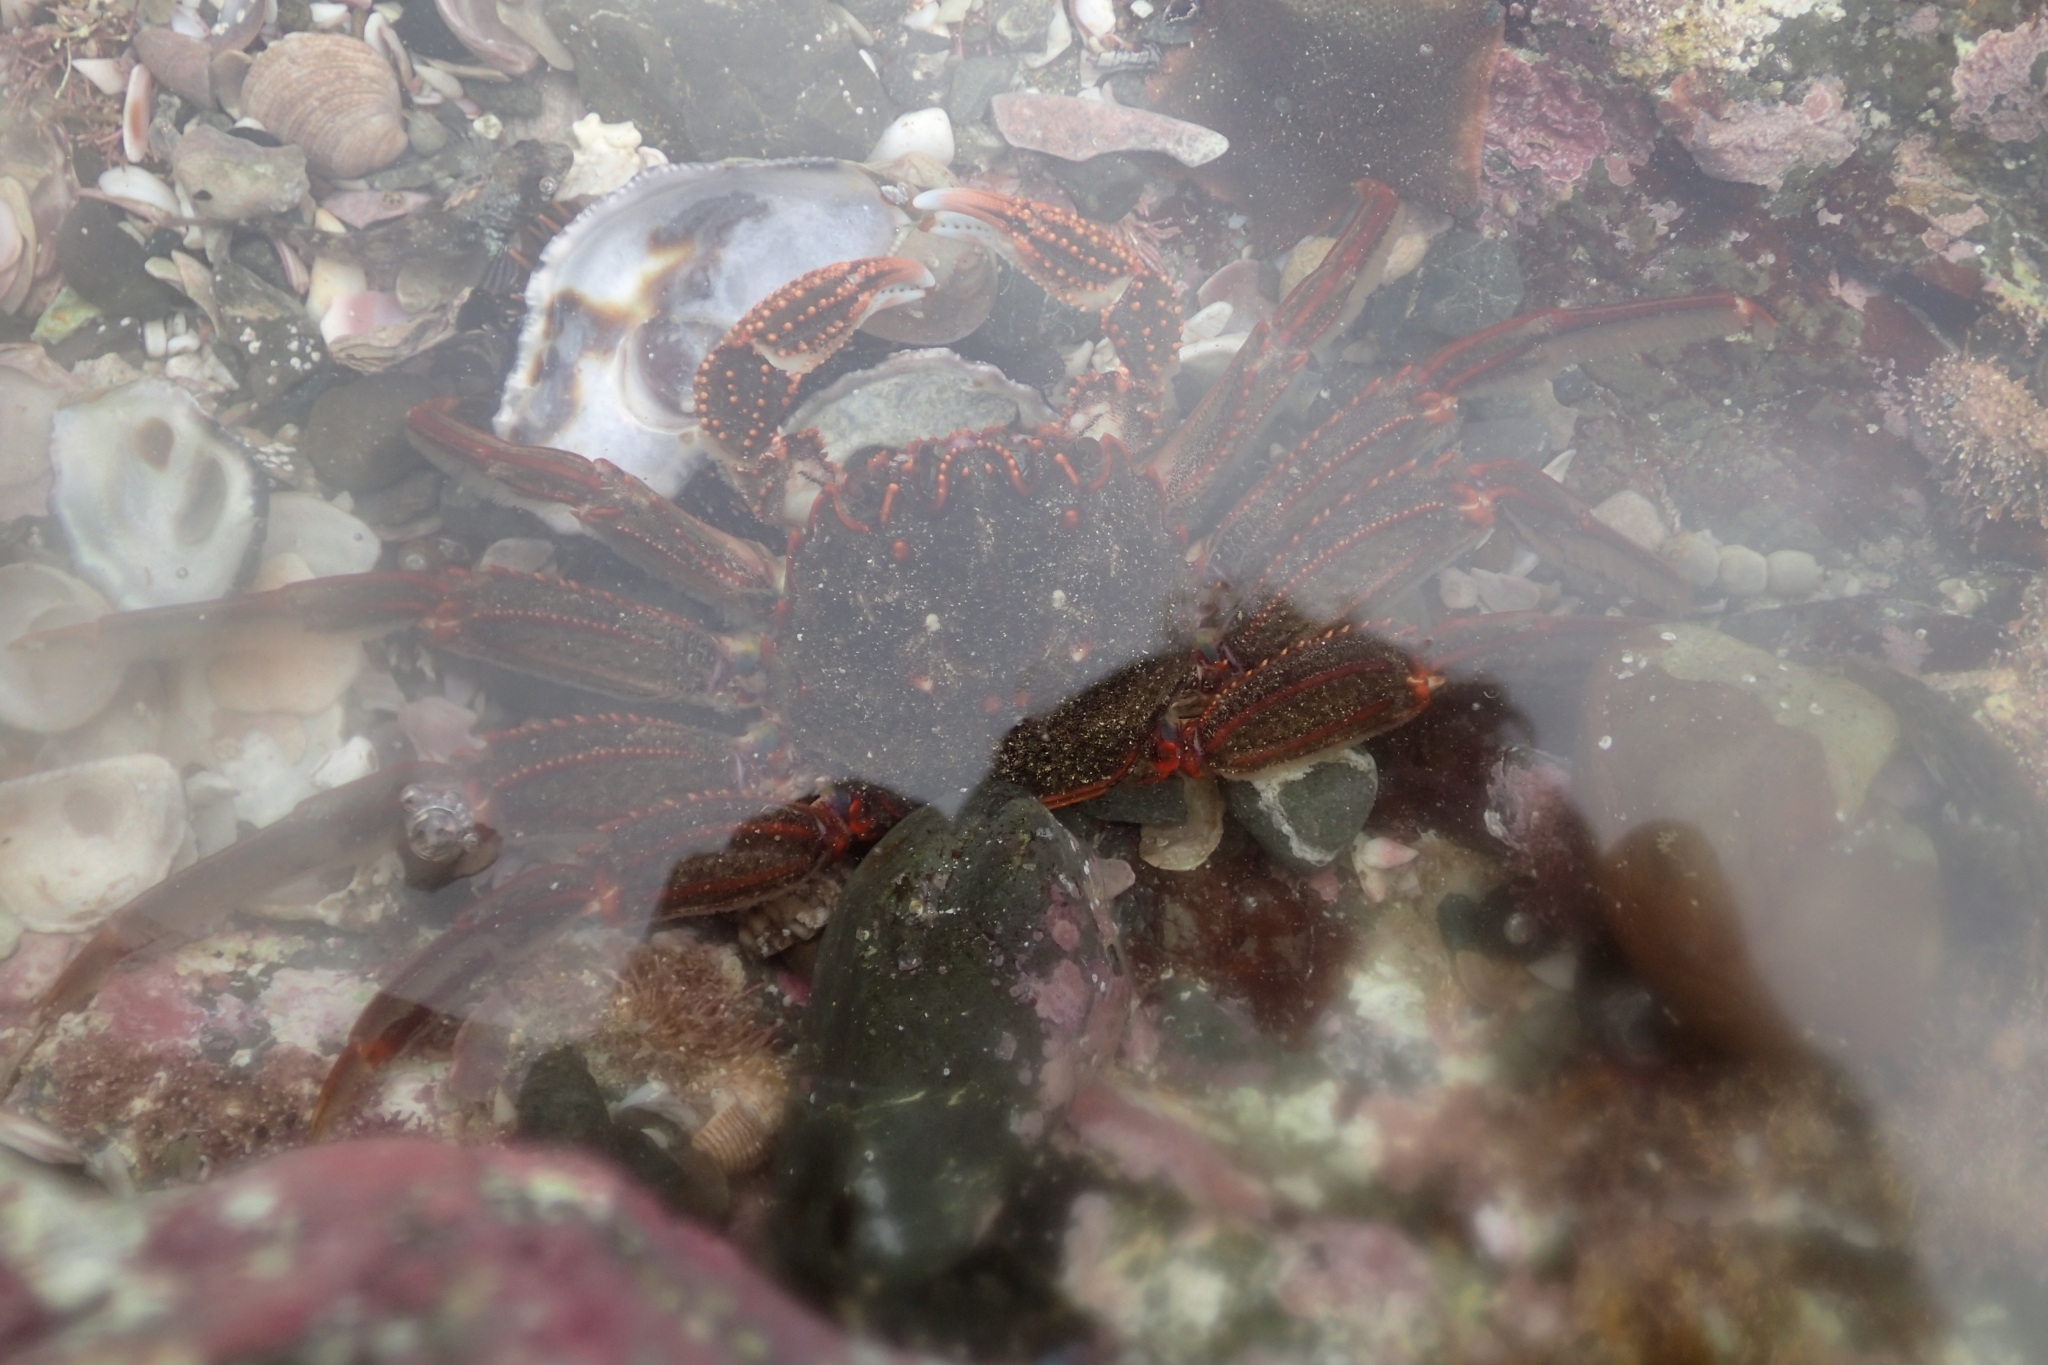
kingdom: Animalia
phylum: Arthropoda
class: Malacostraca
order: Decapoda
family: Plagusiidae
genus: Guinusia
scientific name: Guinusia chabrus
